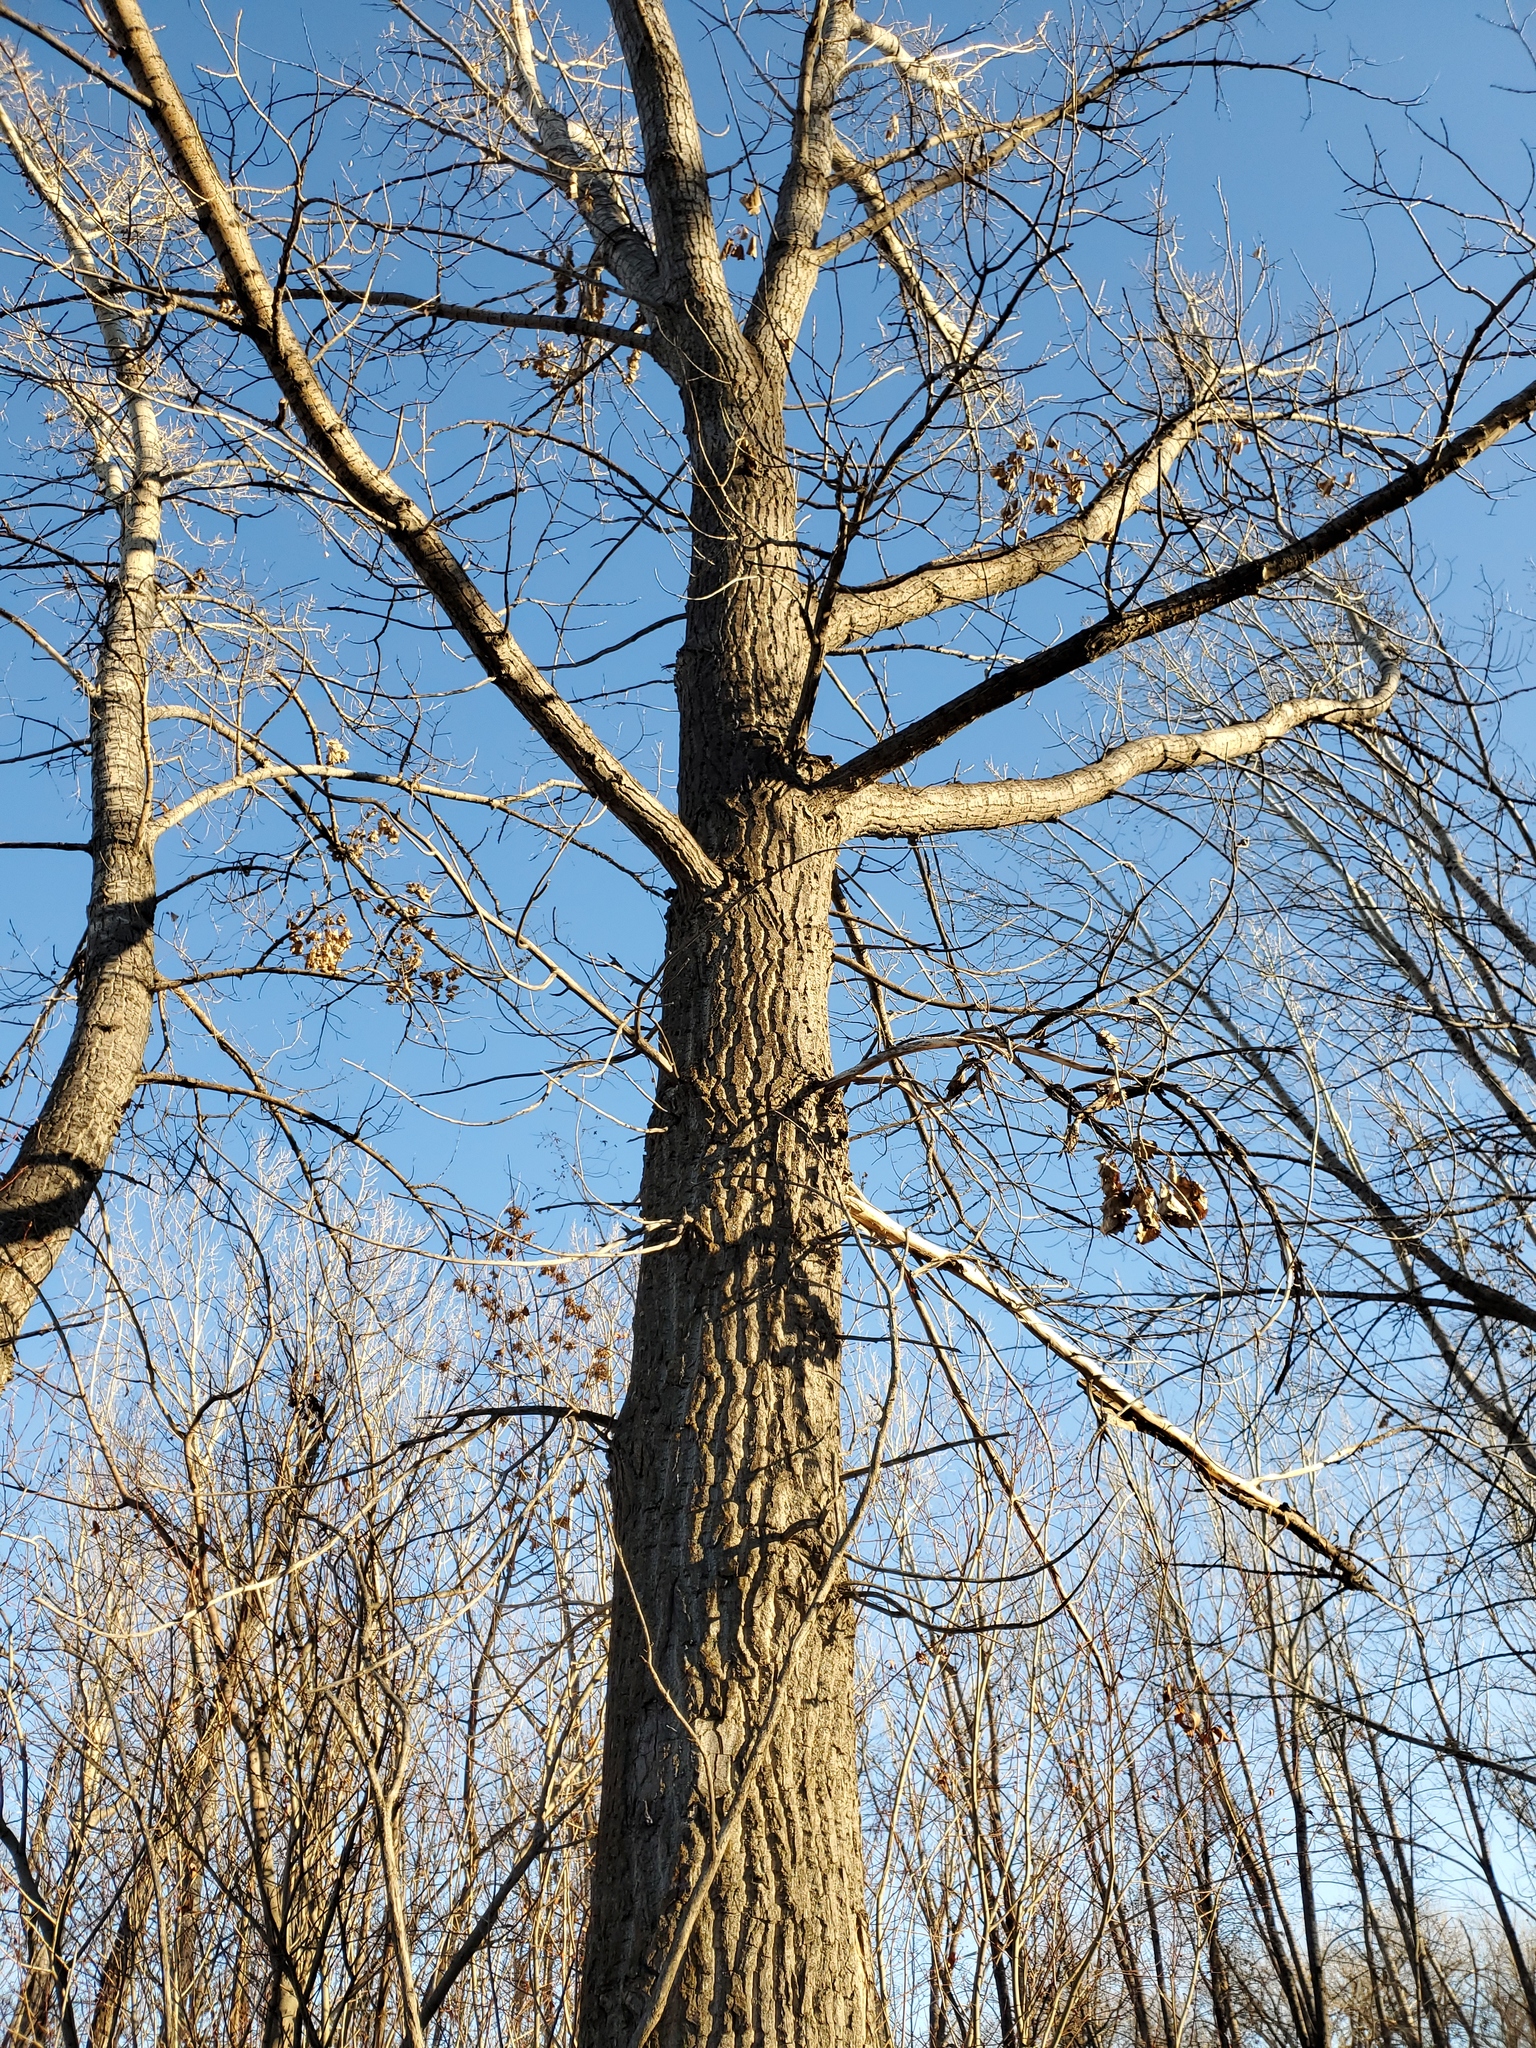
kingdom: Plantae
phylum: Tracheophyta
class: Magnoliopsida
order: Malpighiales
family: Salicaceae
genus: Populus
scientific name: Populus deltoides
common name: Eastern cottonwood
